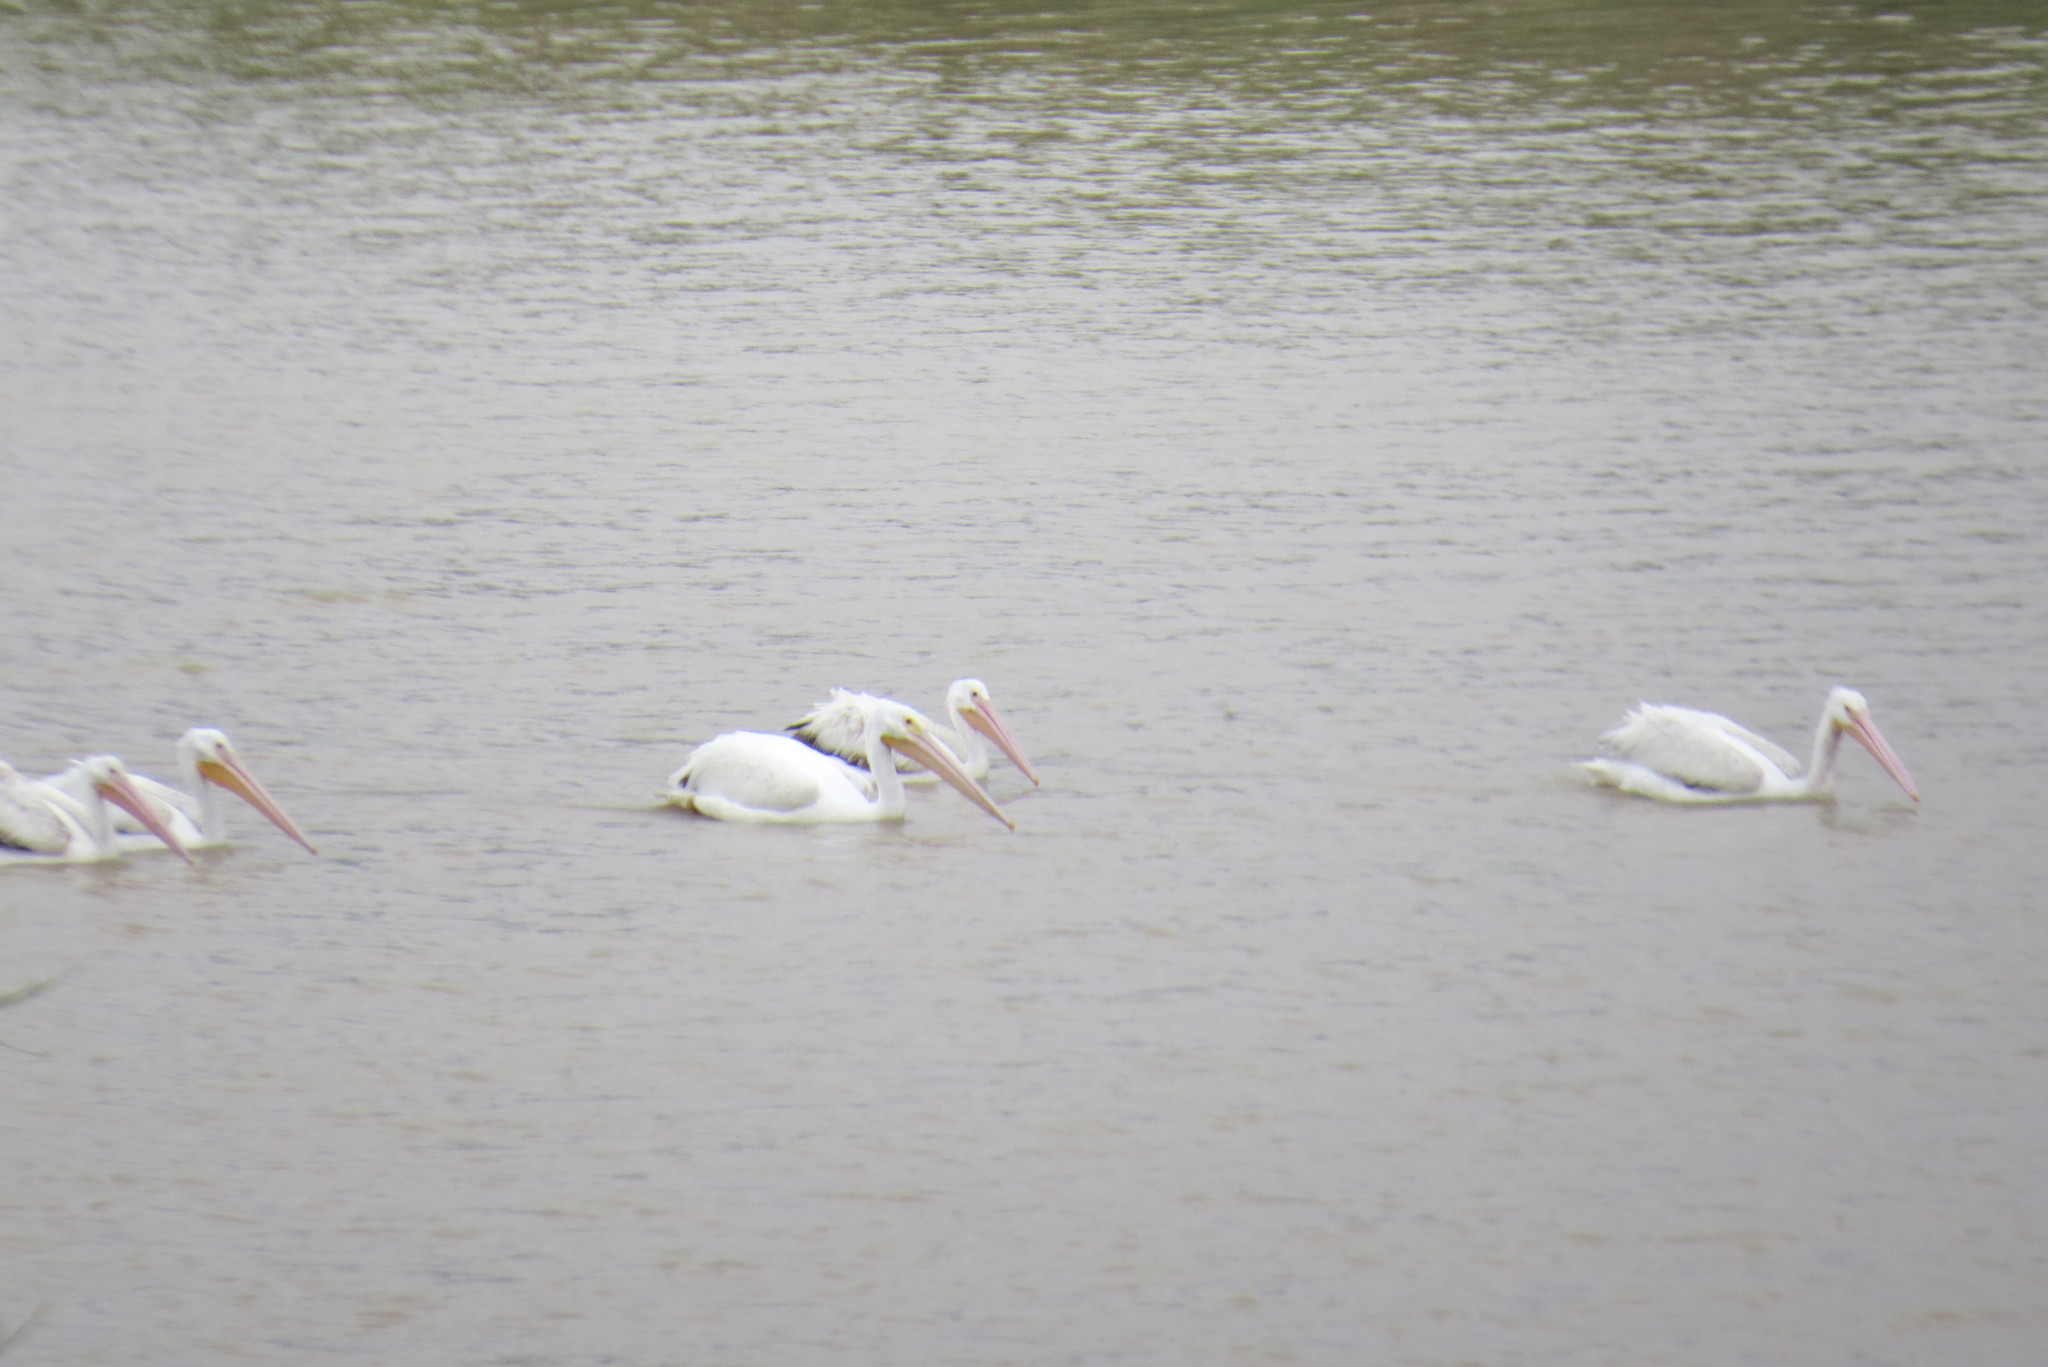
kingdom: Animalia
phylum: Chordata
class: Aves
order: Pelecaniformes
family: Pelecanidae
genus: Pelecanus
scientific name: Pelecanus erythrorhynchos
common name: American white pelican
